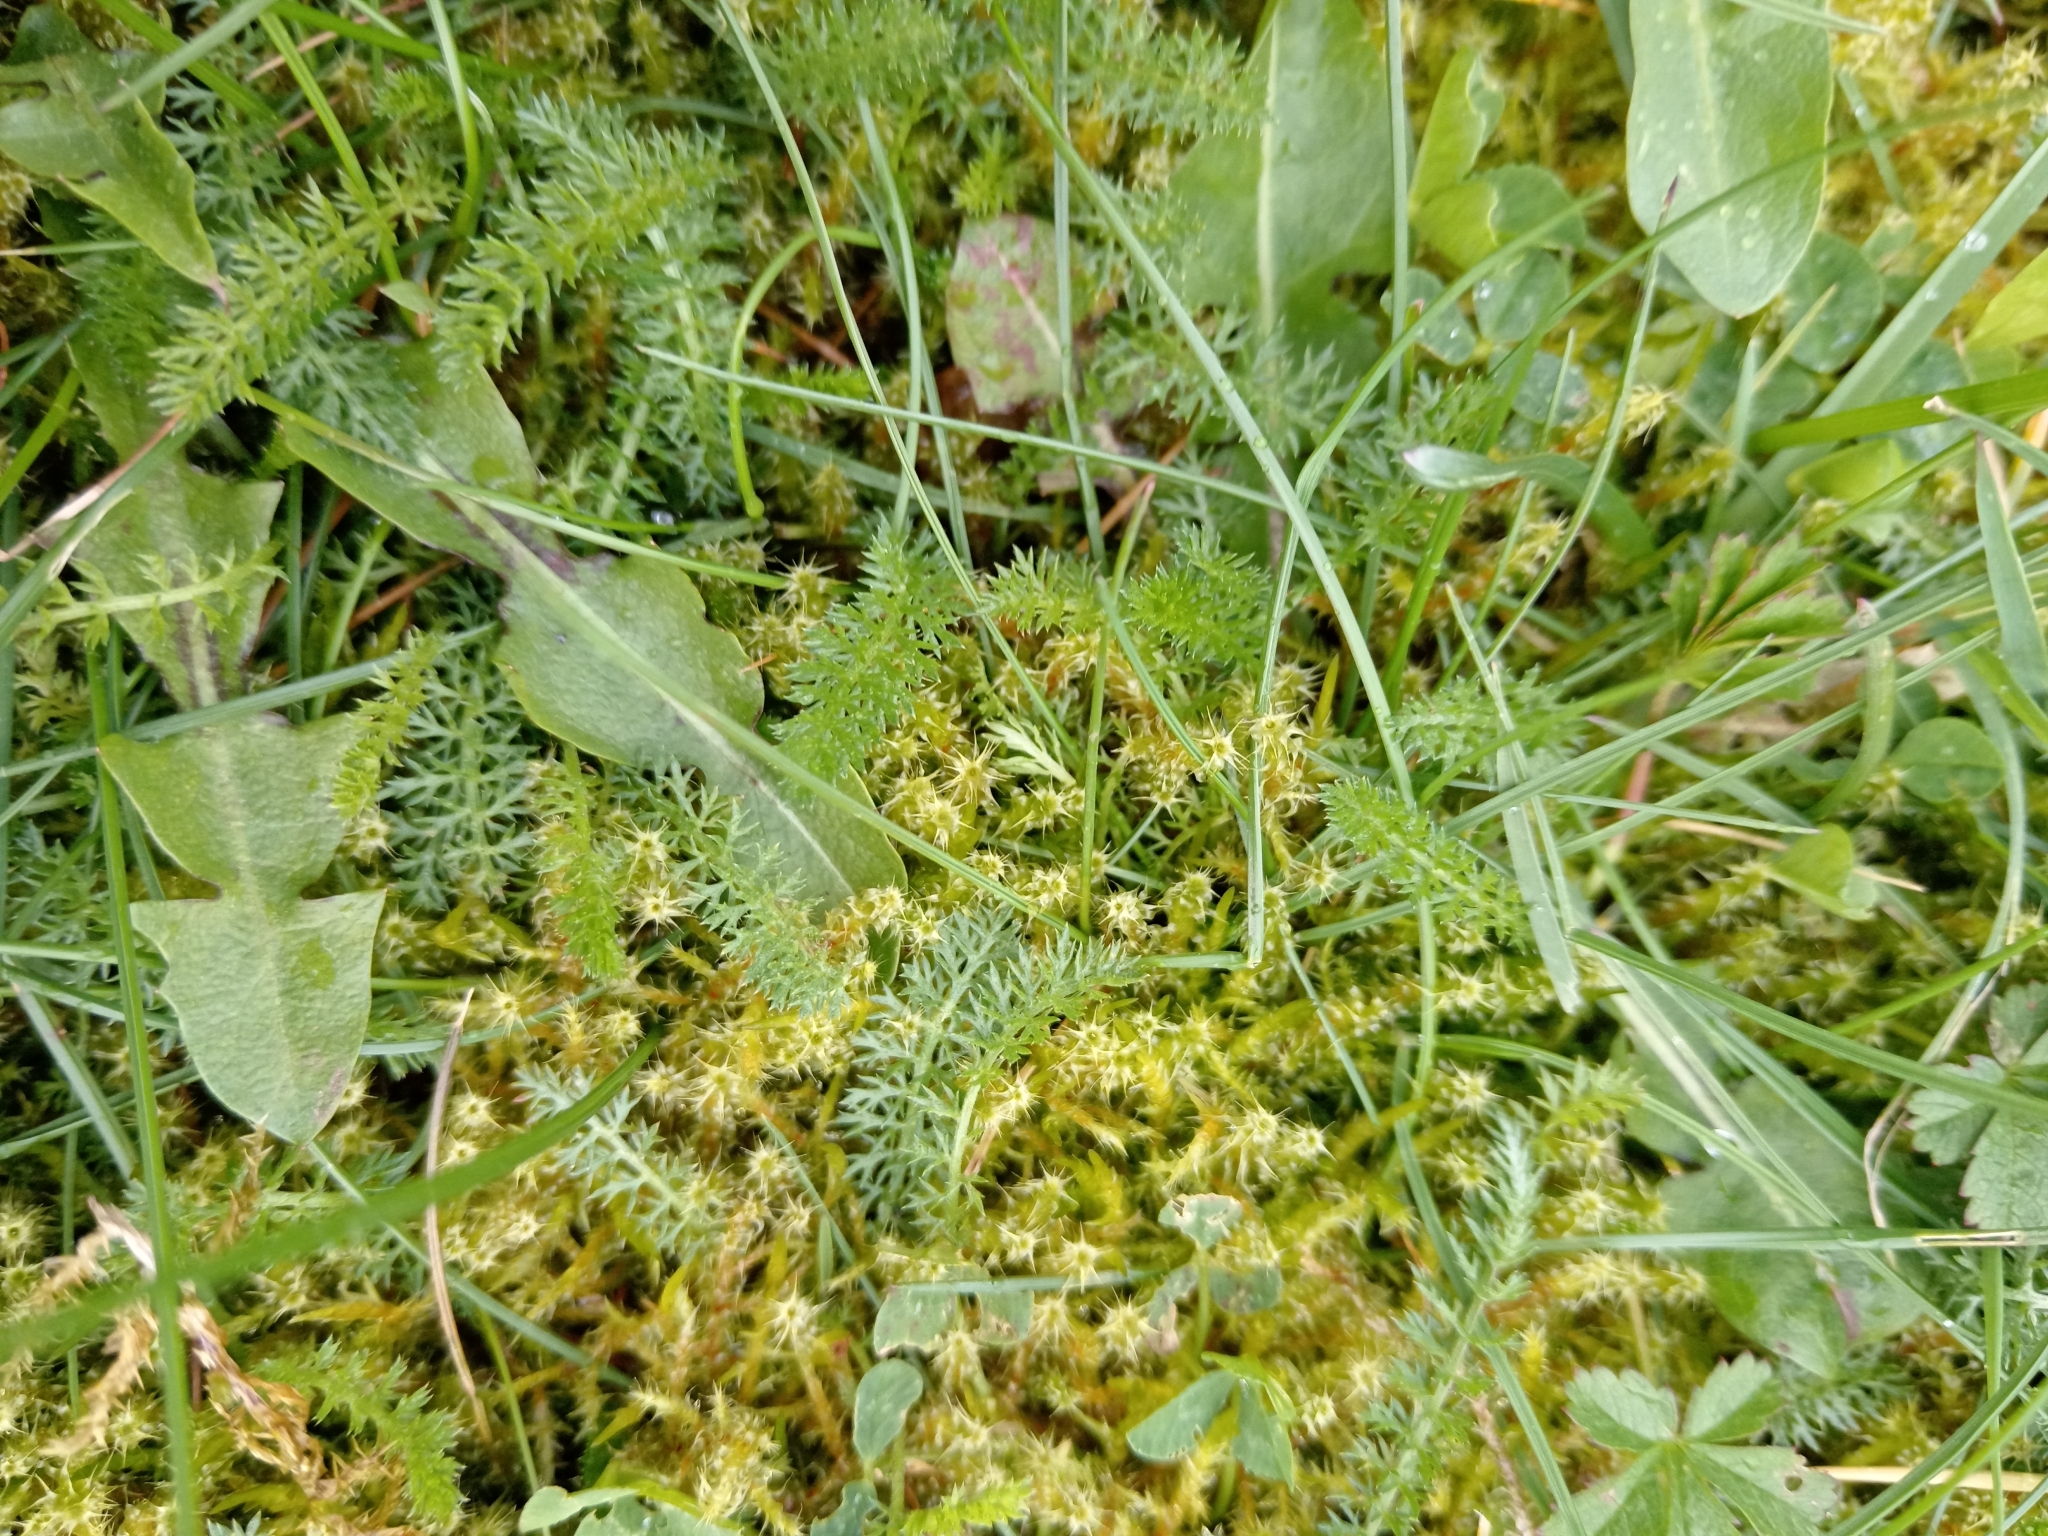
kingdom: Plantae
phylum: Tracheophyta
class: Magnoliopsida
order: Asterales
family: Asteraceae
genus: Achillea
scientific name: Achillea millefolium
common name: Yarrow
